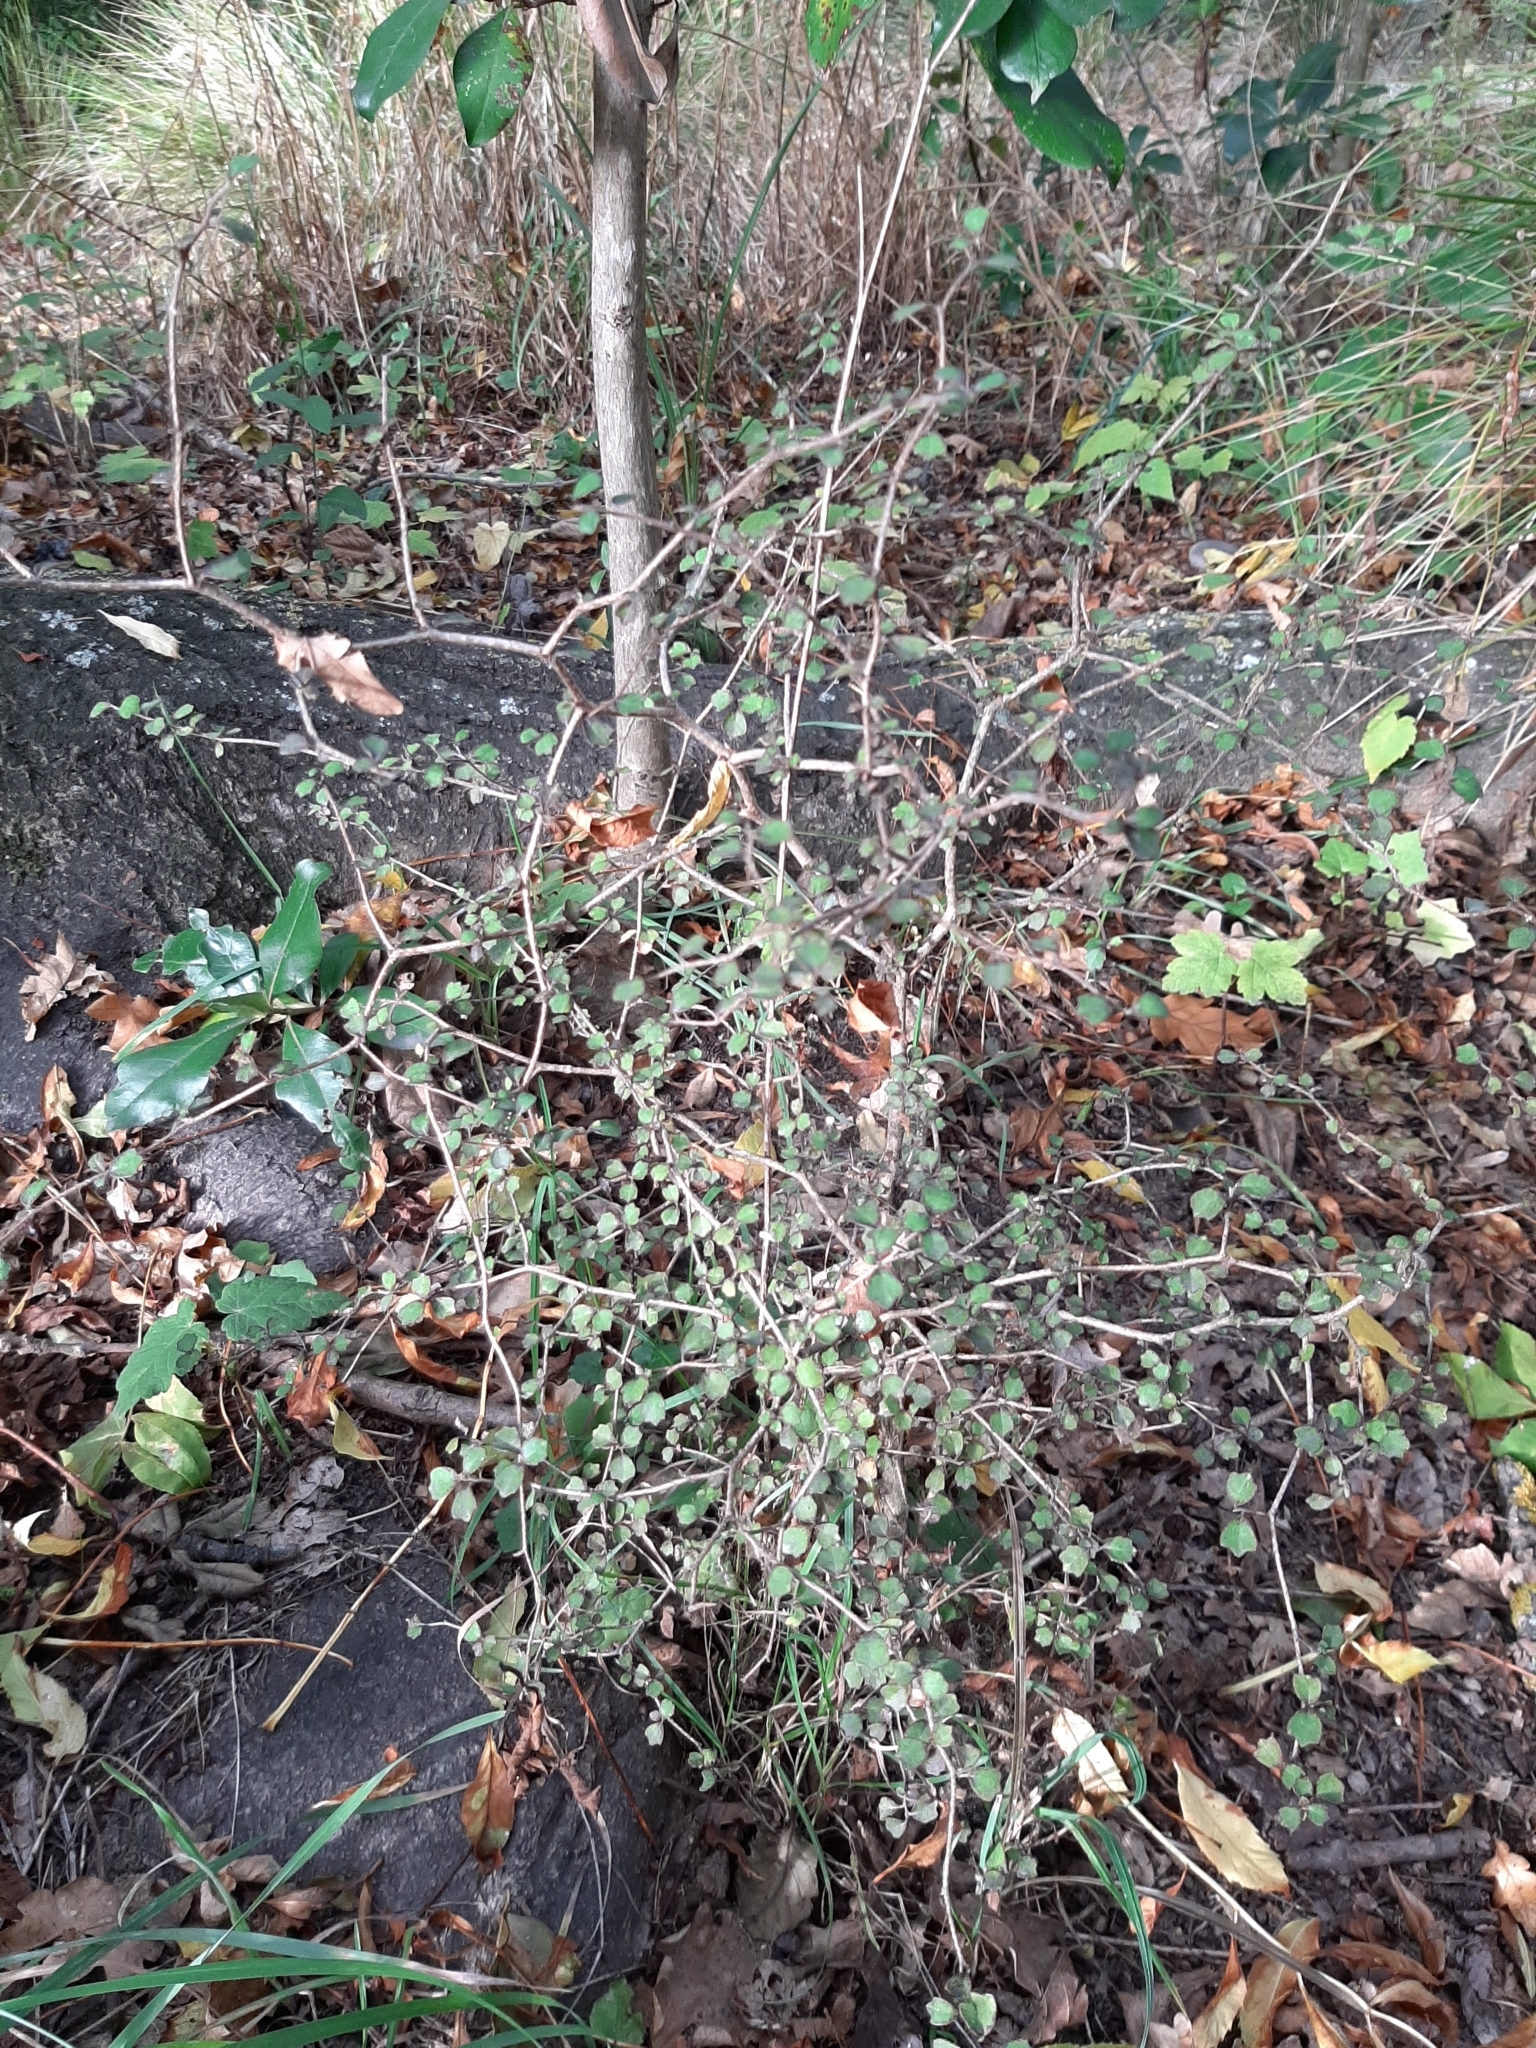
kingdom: Plantae
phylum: Tracheophyta
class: Magnoliopsida
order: Apiales
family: Pennantiaceae
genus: Pennantia
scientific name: Pennantia corymbosa
